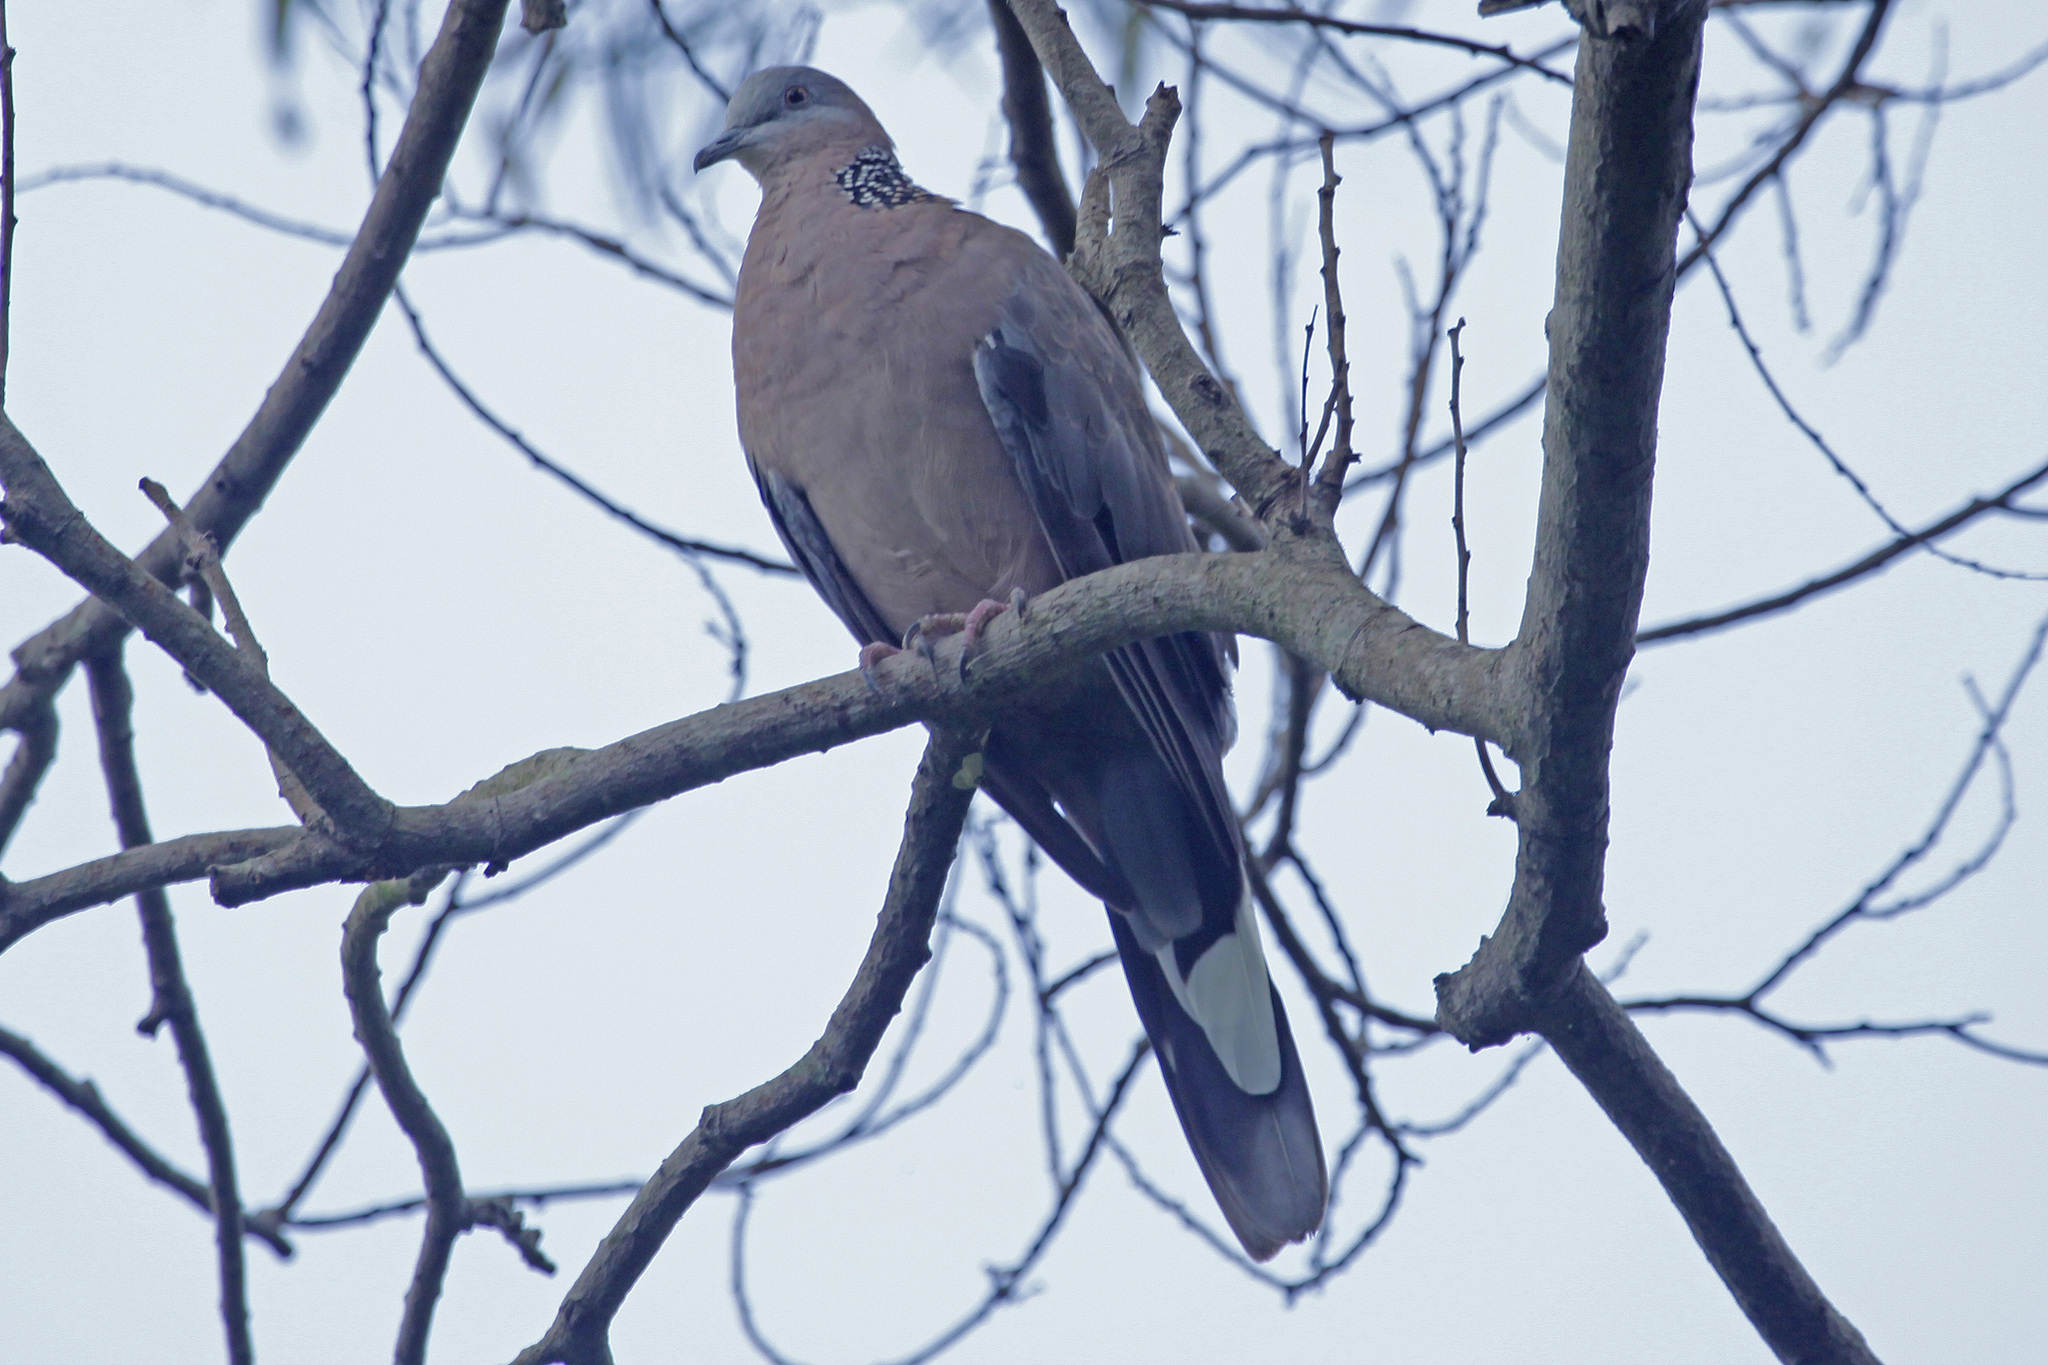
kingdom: Animalia
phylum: Chordata
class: Aves
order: Columbiformes
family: Columbidae
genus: Spilopelia
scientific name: Spilopelia chinensis
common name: Spotted dove
